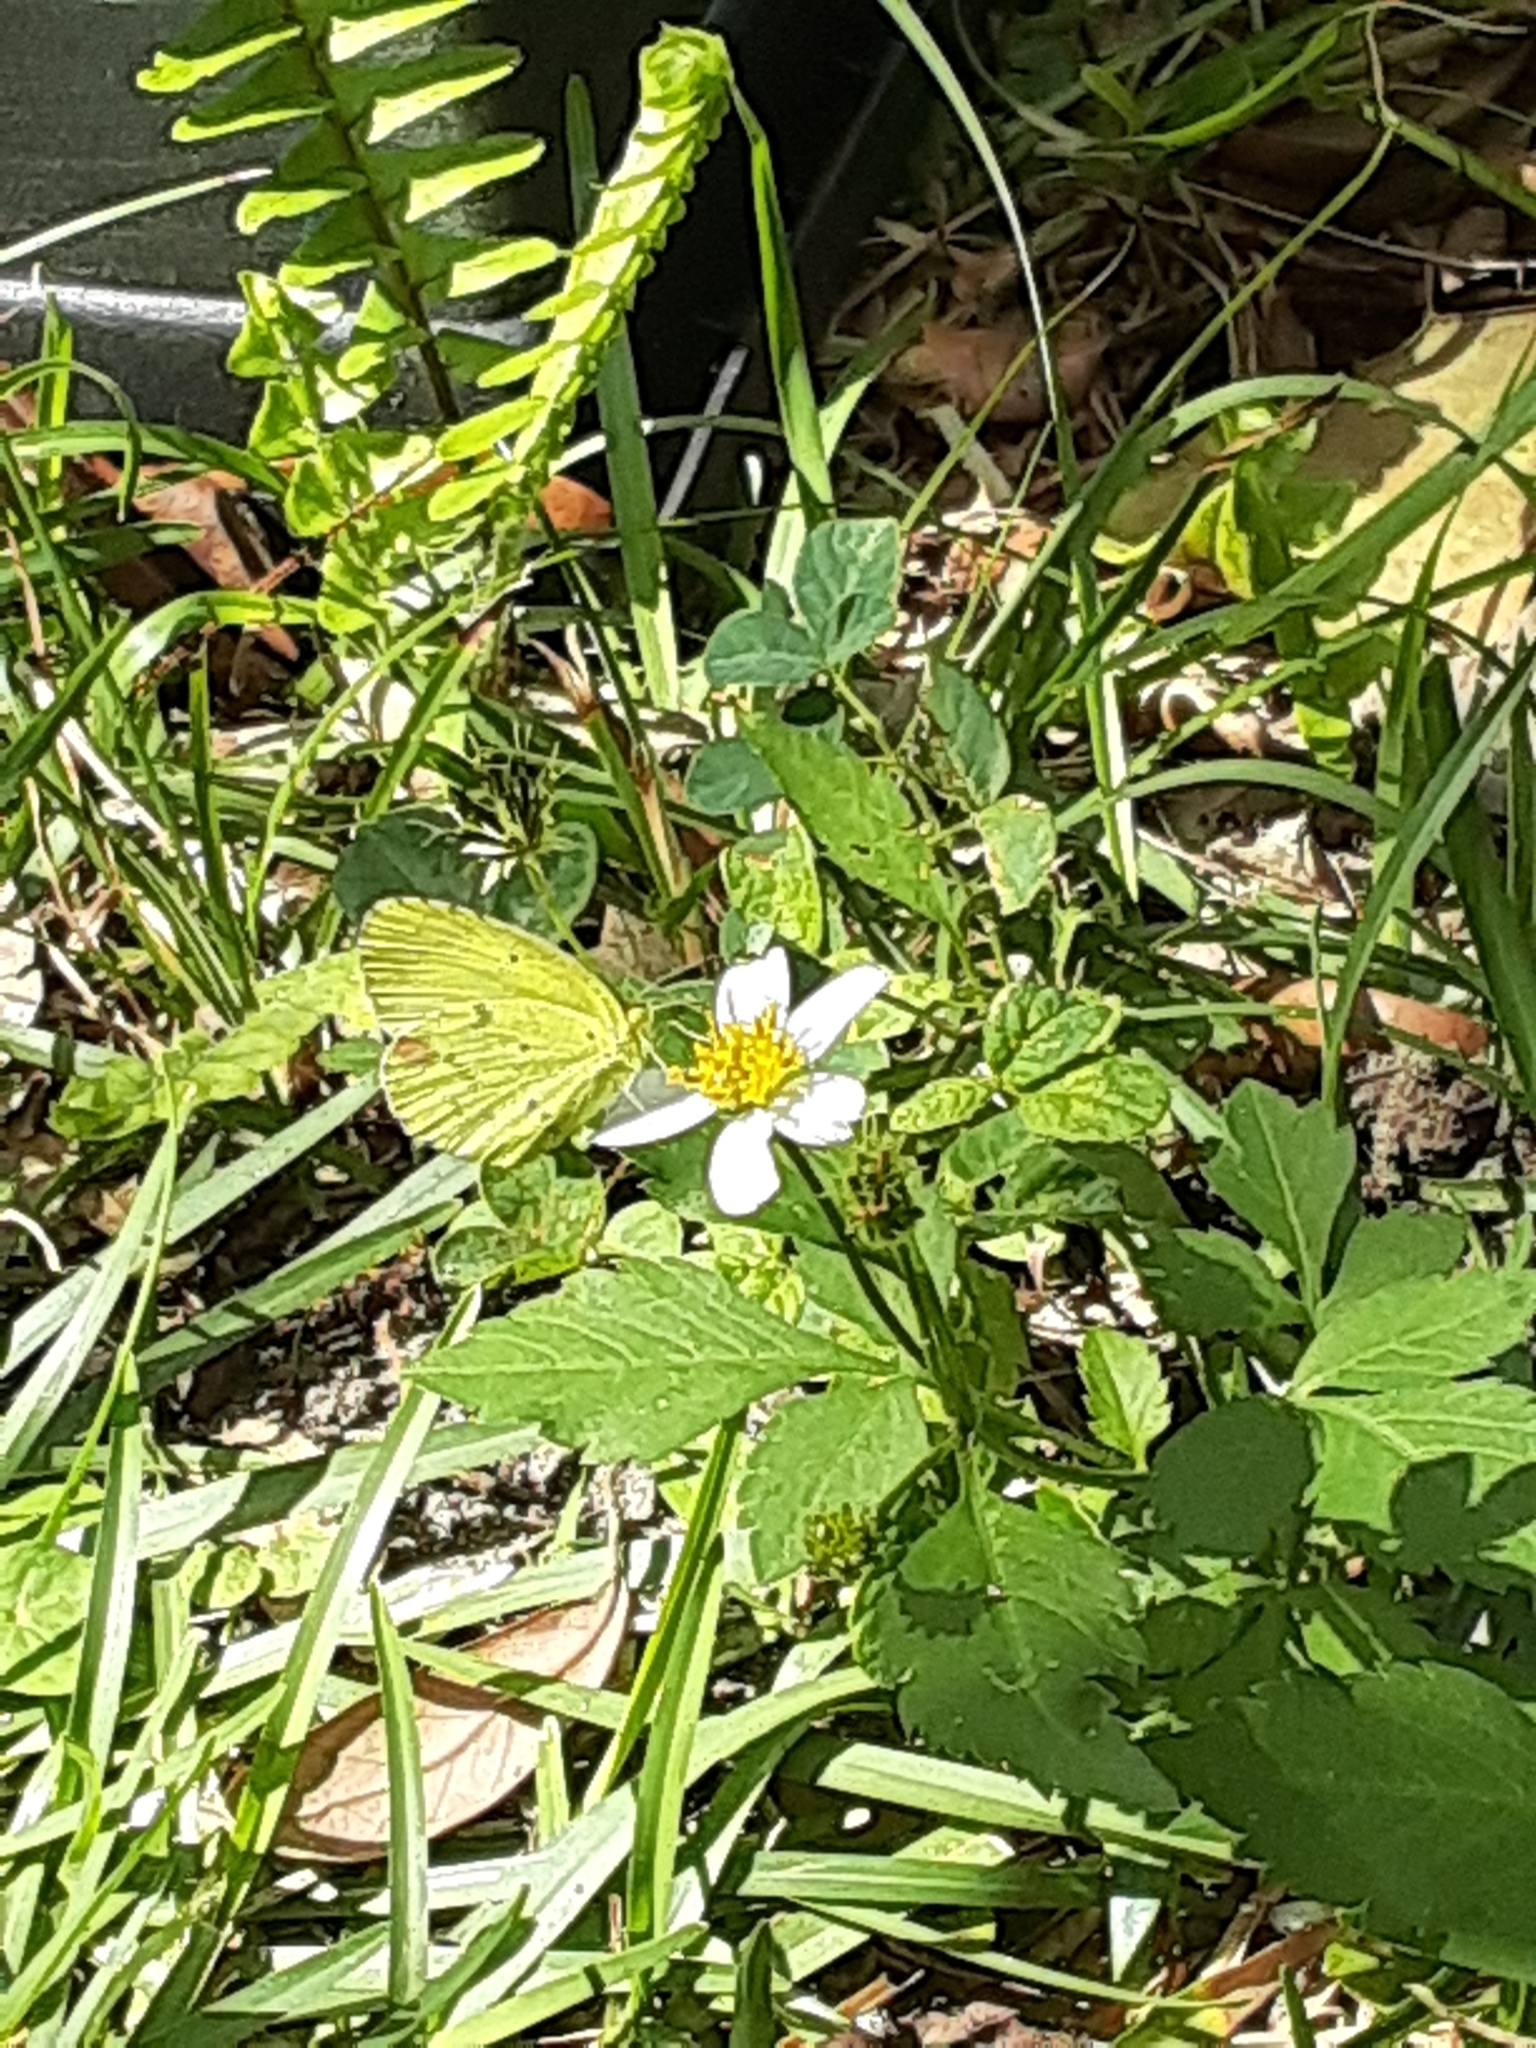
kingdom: Animalia
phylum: Arthropoda
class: Insecta
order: Lepidoptera
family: Pieridae
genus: Pyrisitia
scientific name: Pyrisitia lisa
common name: Little yellow
